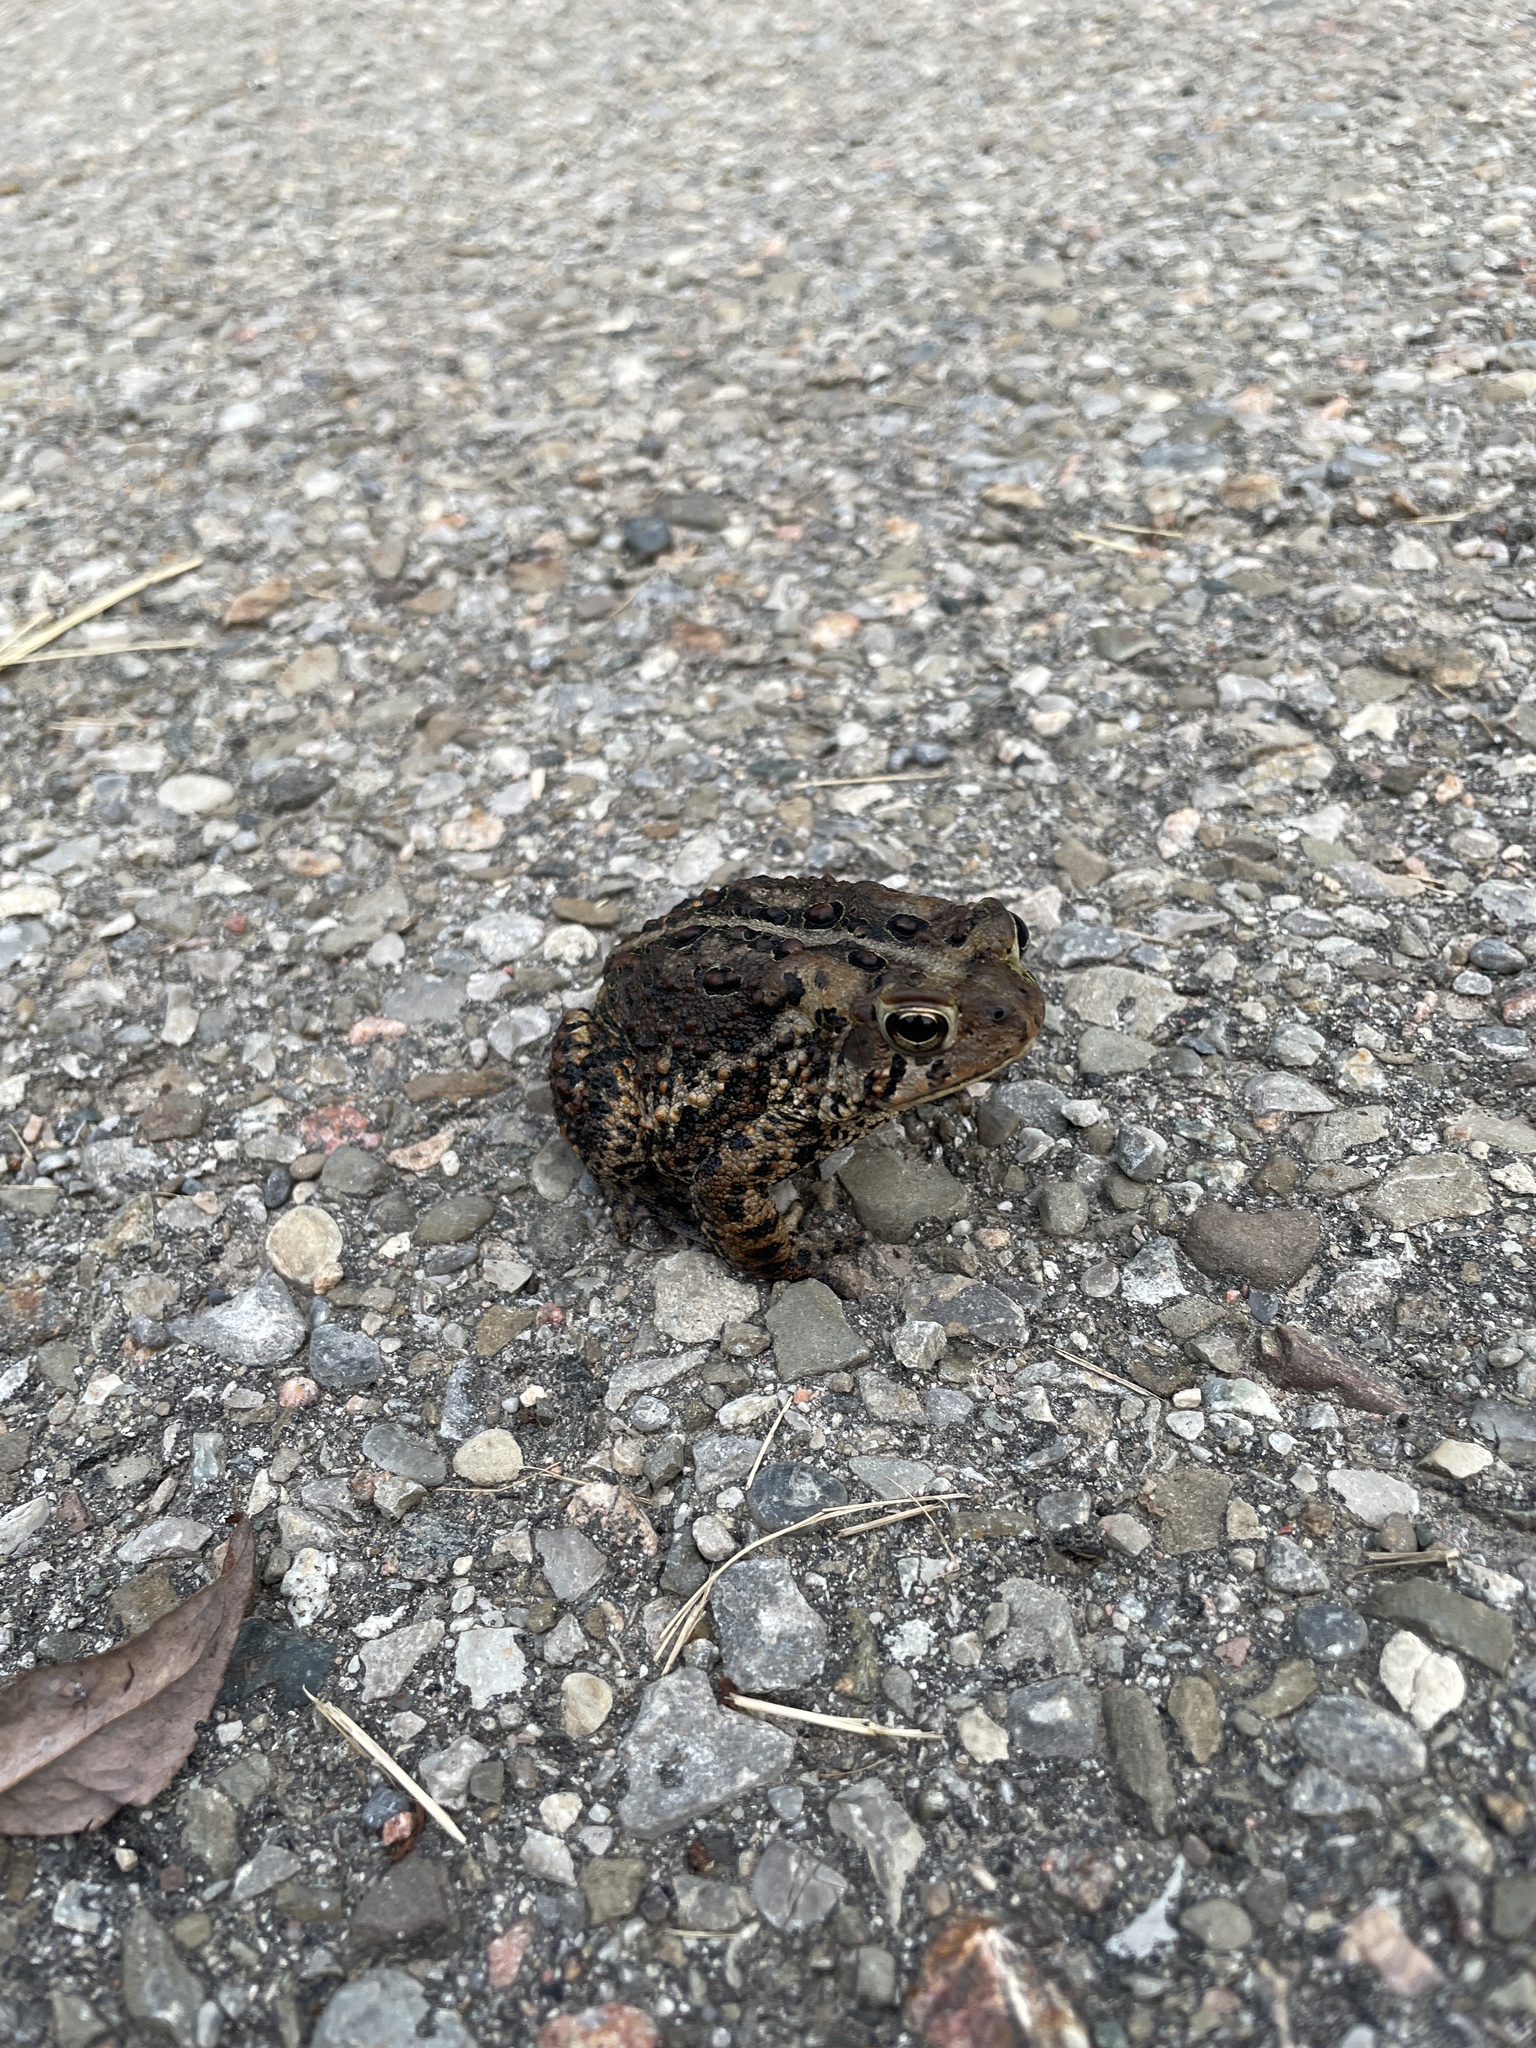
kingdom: Animalia
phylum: Chordata
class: Amphibia
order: Anura
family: Bufonidae
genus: Anaxyrus
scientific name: Anaxyrus americanus
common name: American toad
